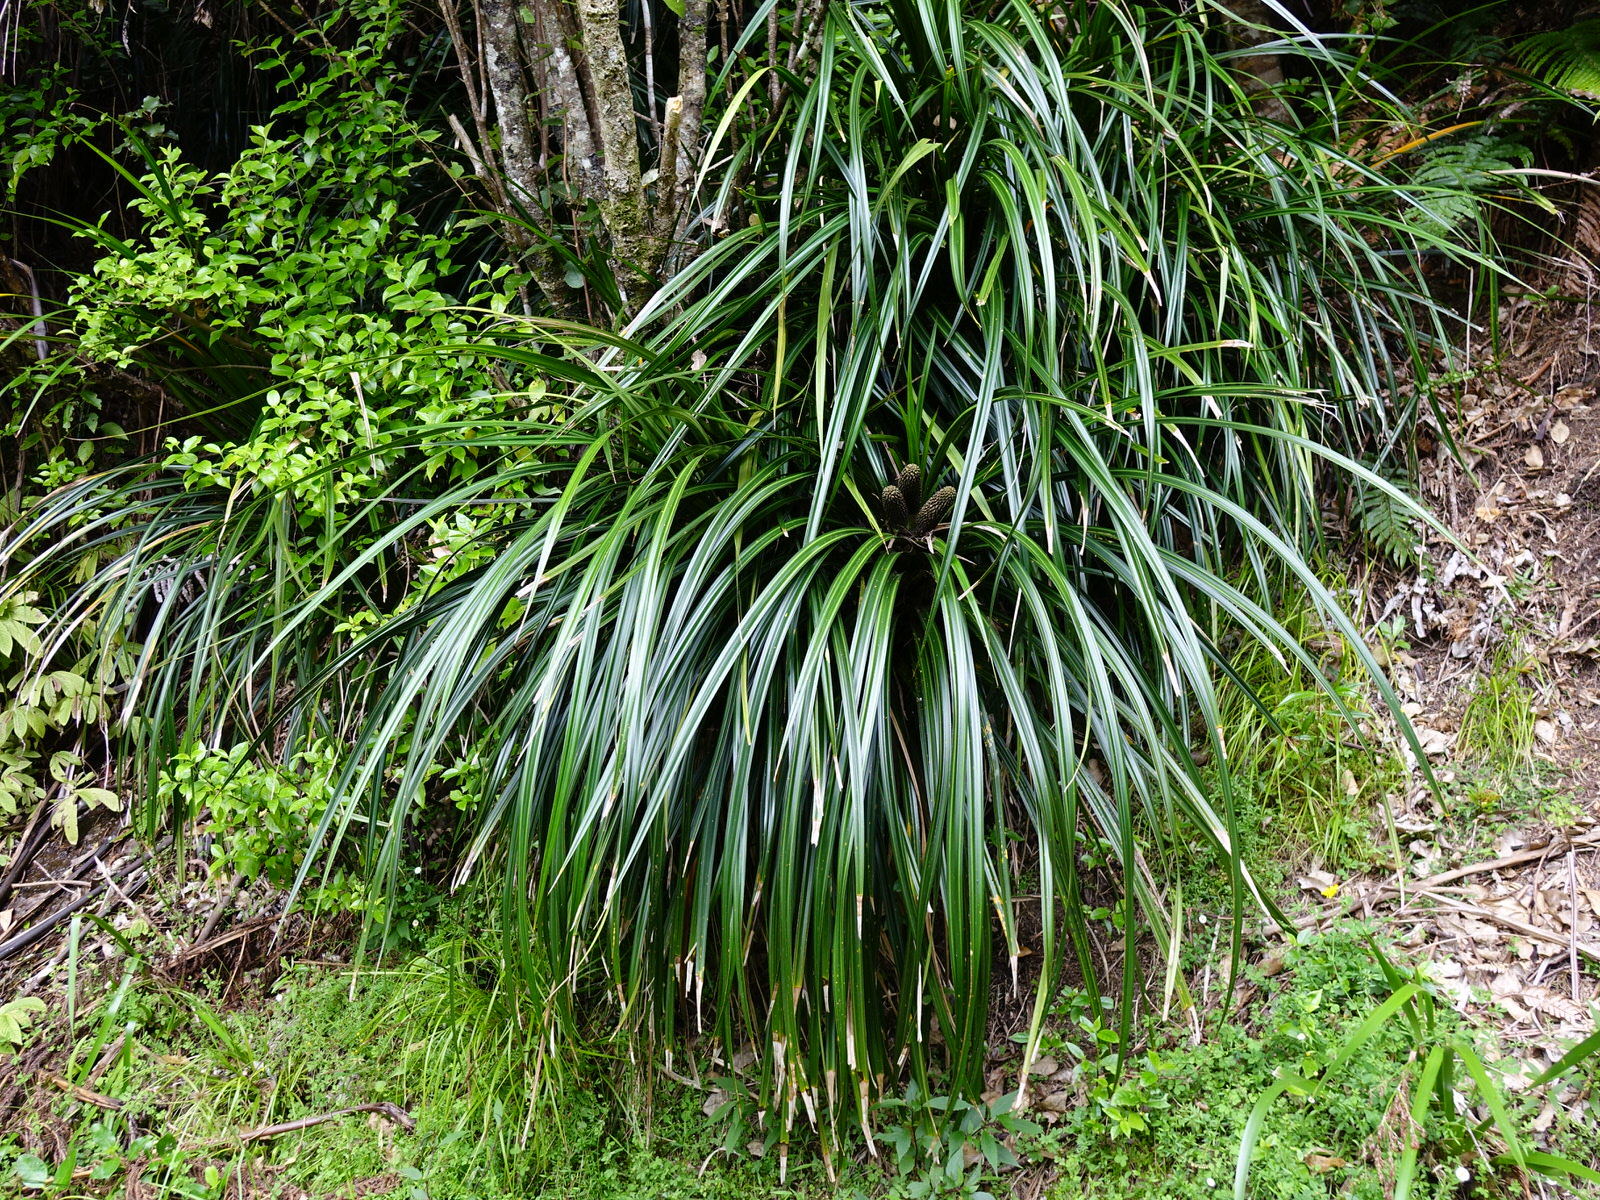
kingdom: Plantae
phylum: Tracheophyta
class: Liliopsida
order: Pandanales
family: Pandanaceae
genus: Freycinetia
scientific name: Freycinetia banksii
